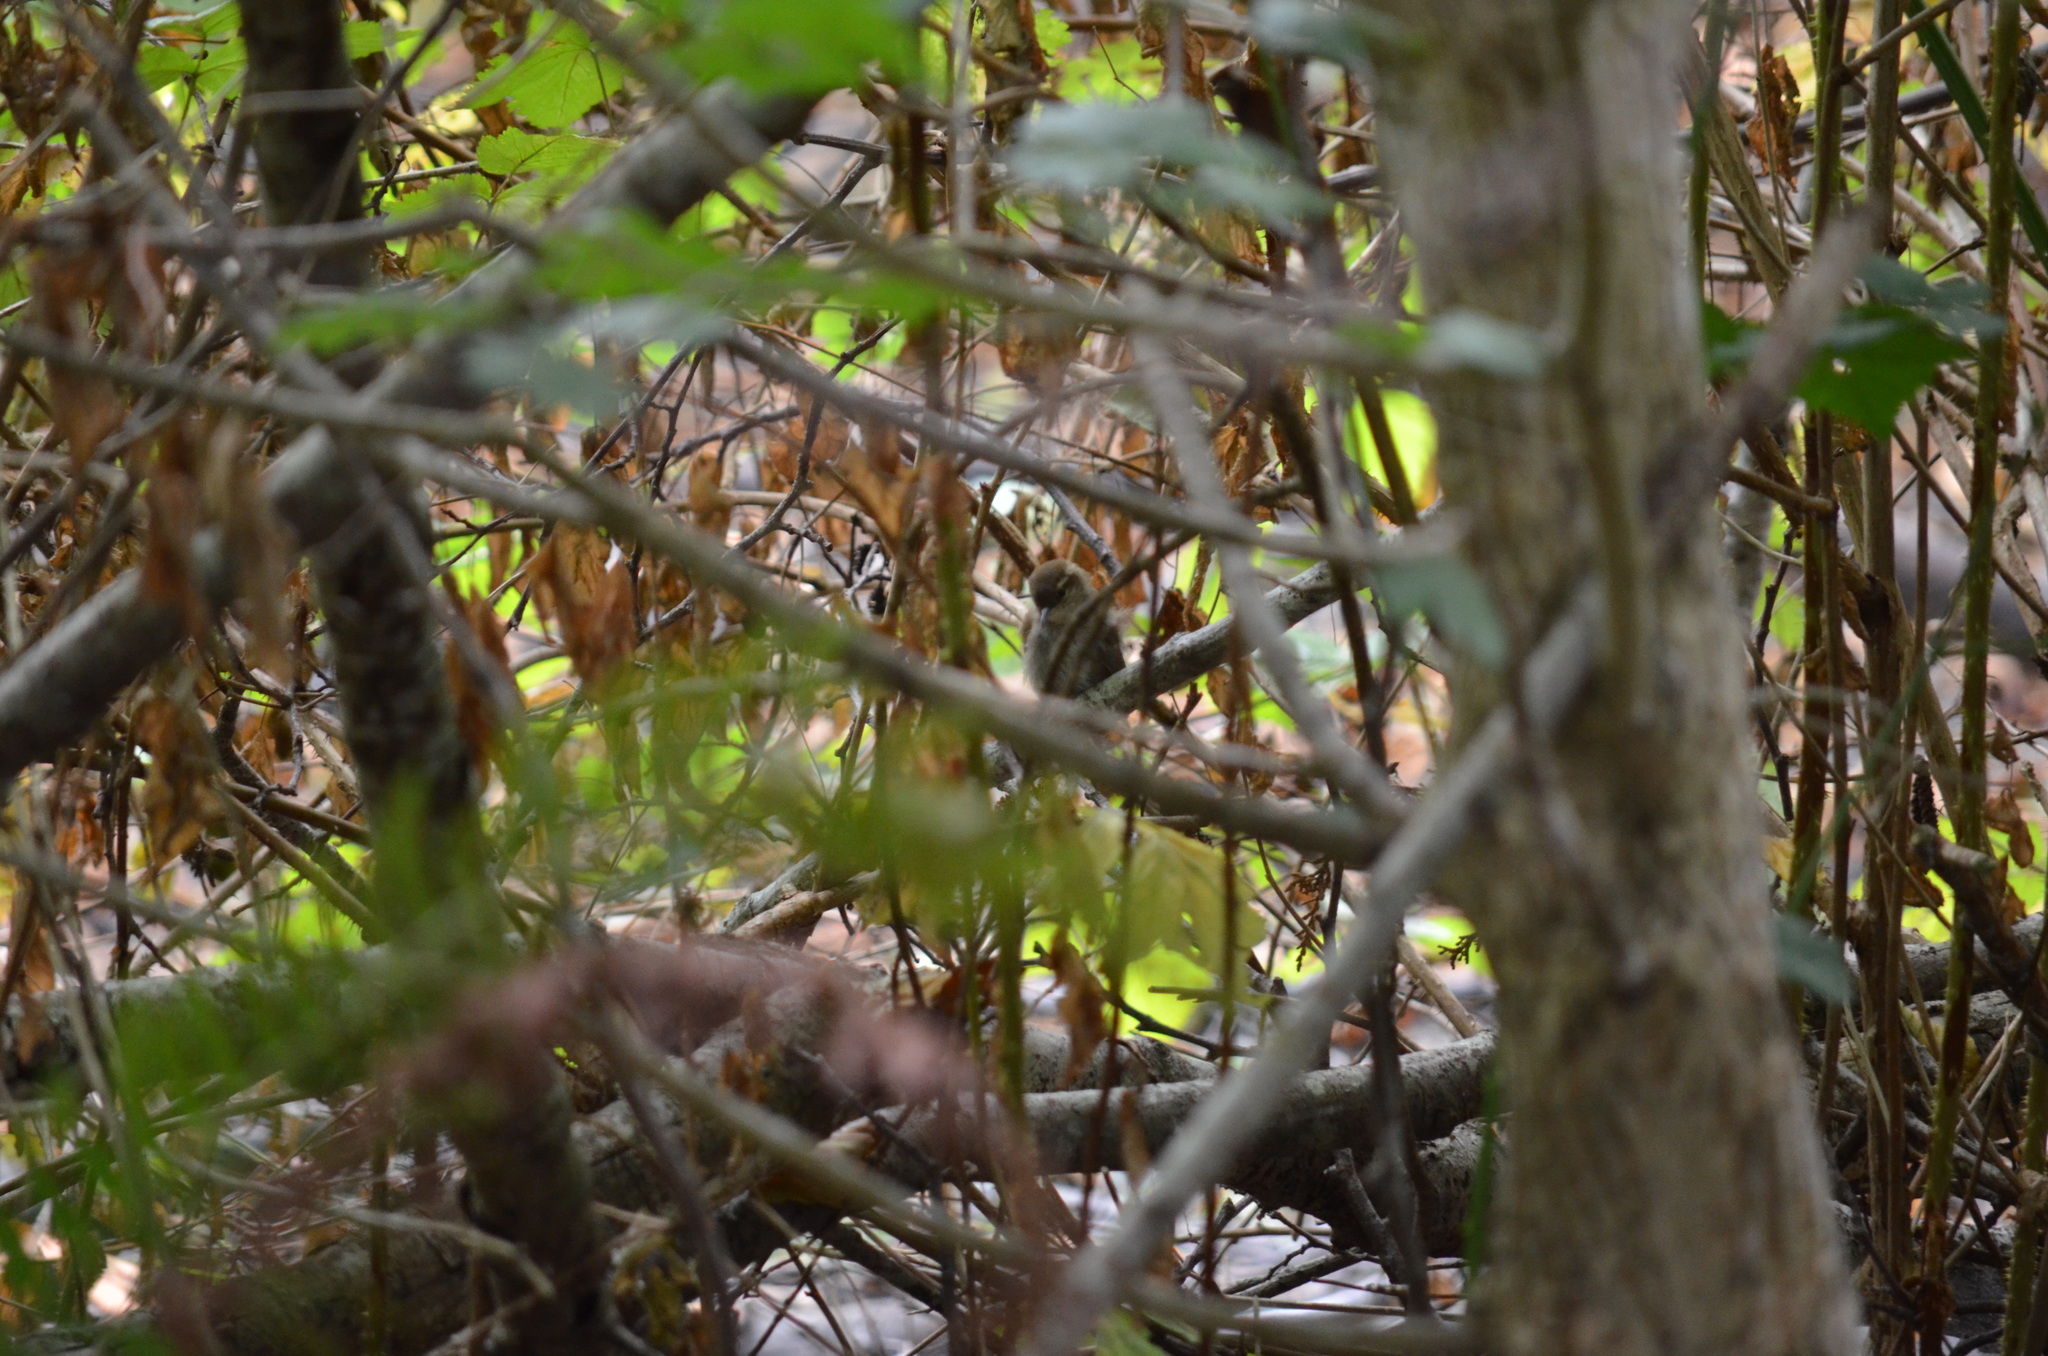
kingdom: Animalia
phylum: Chordata
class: Aves
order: Passeriformes
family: Troglodytidae
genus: Thryomanes
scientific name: Thryomanes bewickii
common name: Bewick's wren
